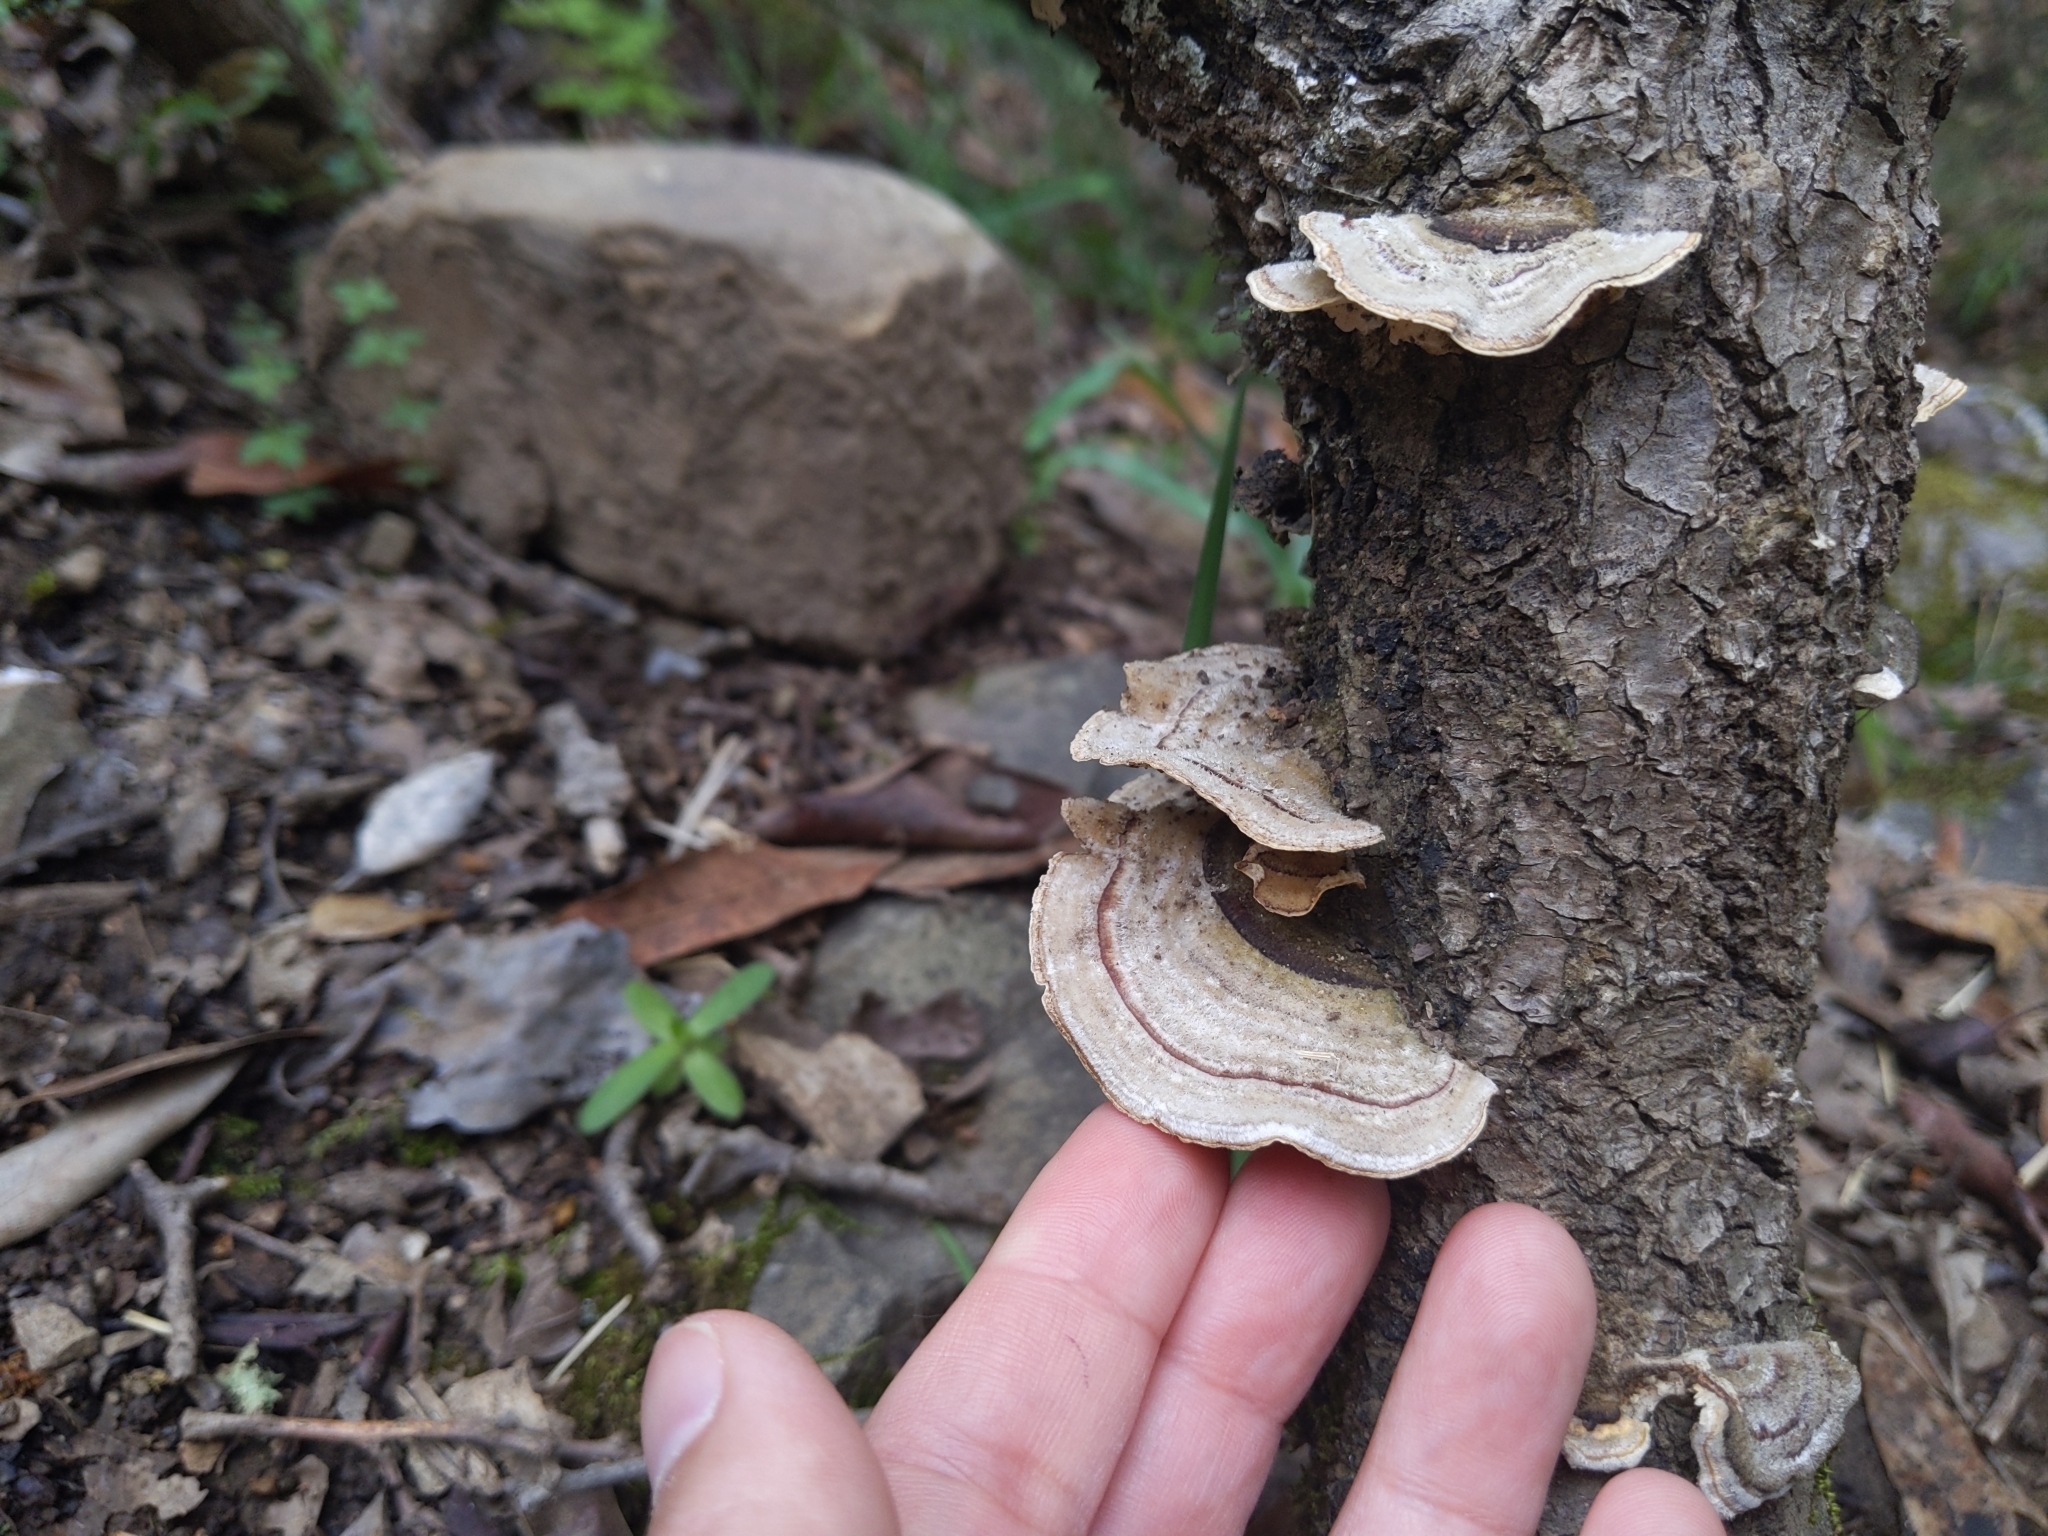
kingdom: Fungi
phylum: Basidiomycota
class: Agaricomycetes
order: Polyporales
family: Polyporaceae
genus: Trametes
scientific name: Trametes versicolor
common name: Turkeytail
